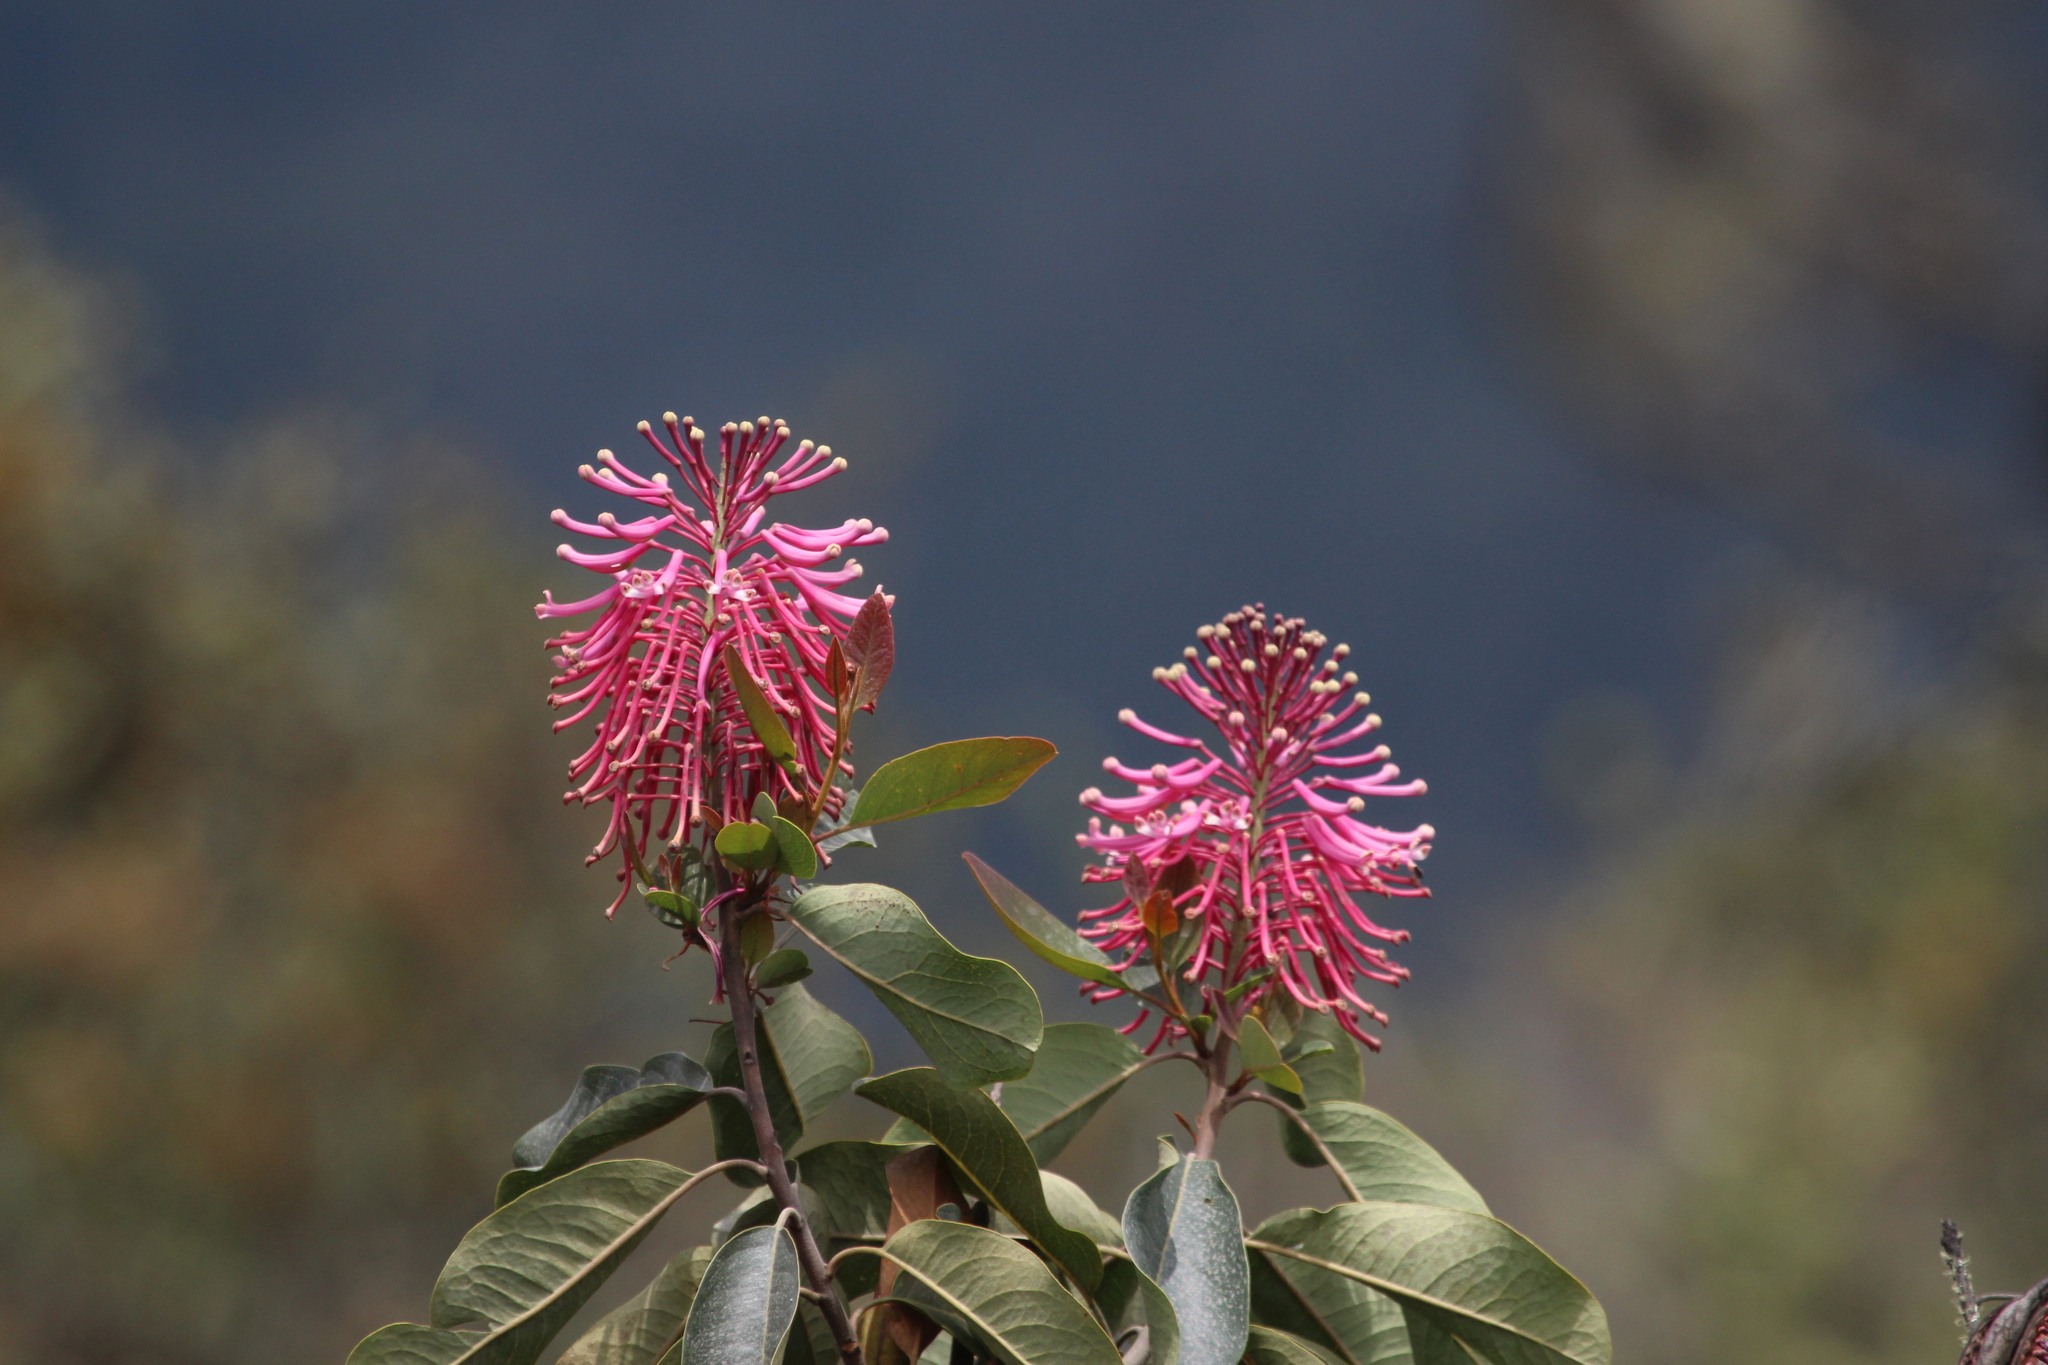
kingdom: Plantae
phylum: Tracheophyta
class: Magnoliopsida
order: Proteales
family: Proteaceae
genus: Oreocallis
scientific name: Oreocallis grandiflora
